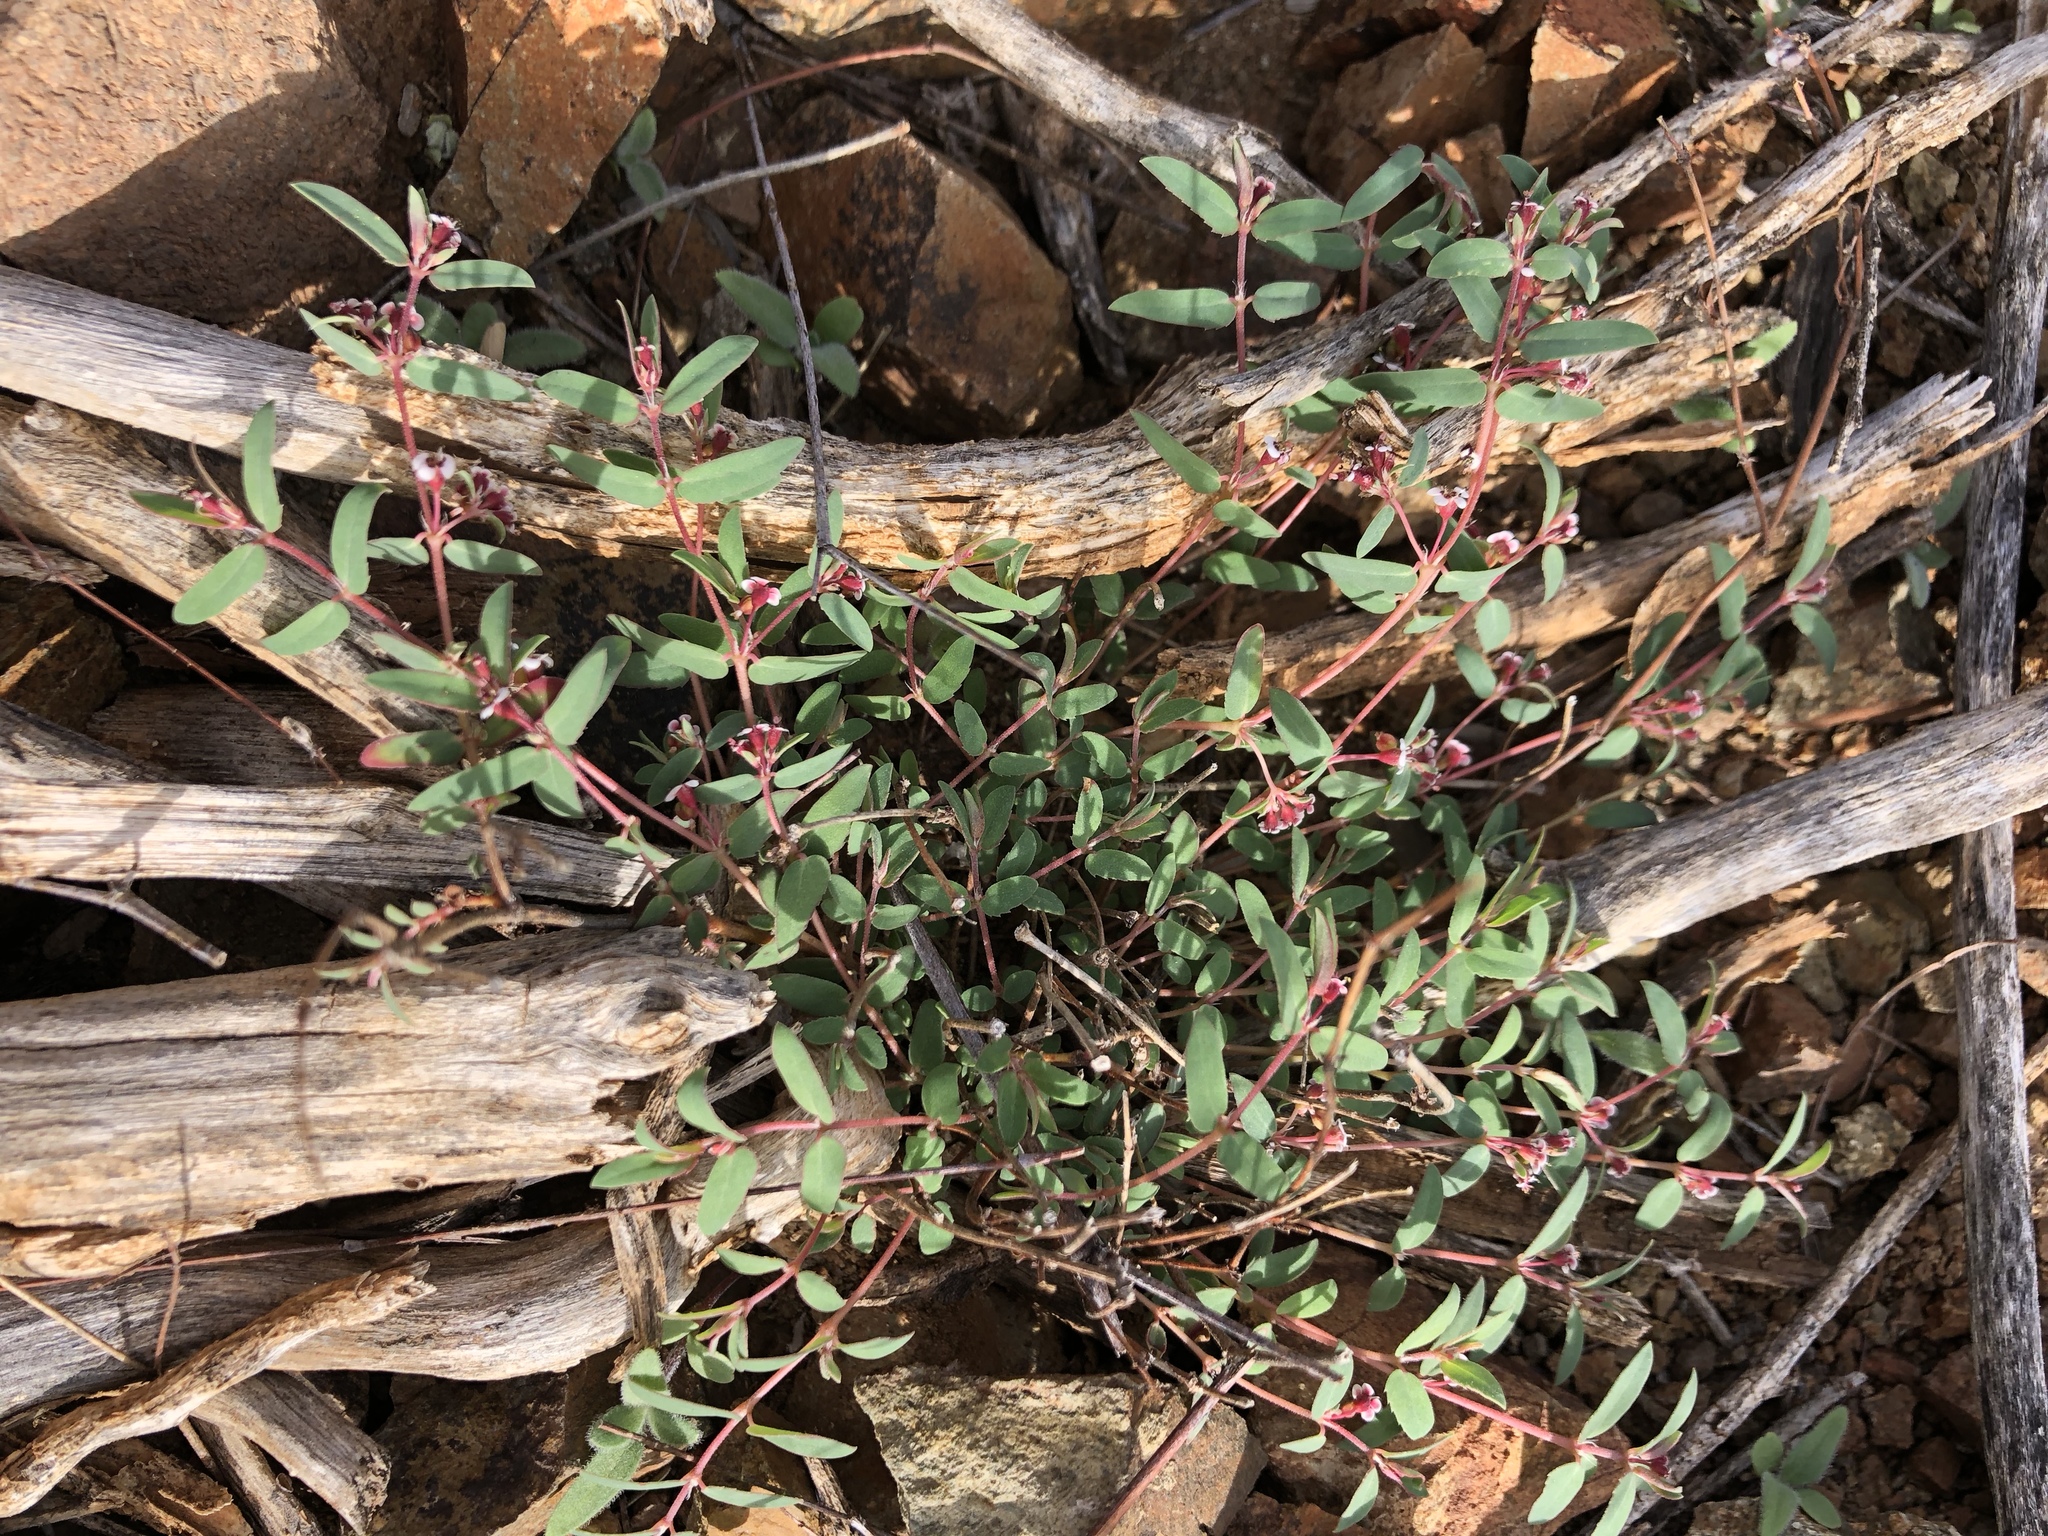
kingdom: Plantae
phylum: Tracheophyta
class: Magnoliopsida
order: Malpighiales
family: Euphorbiaceae
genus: Euphorbia
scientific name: Euphorbia capitellata
